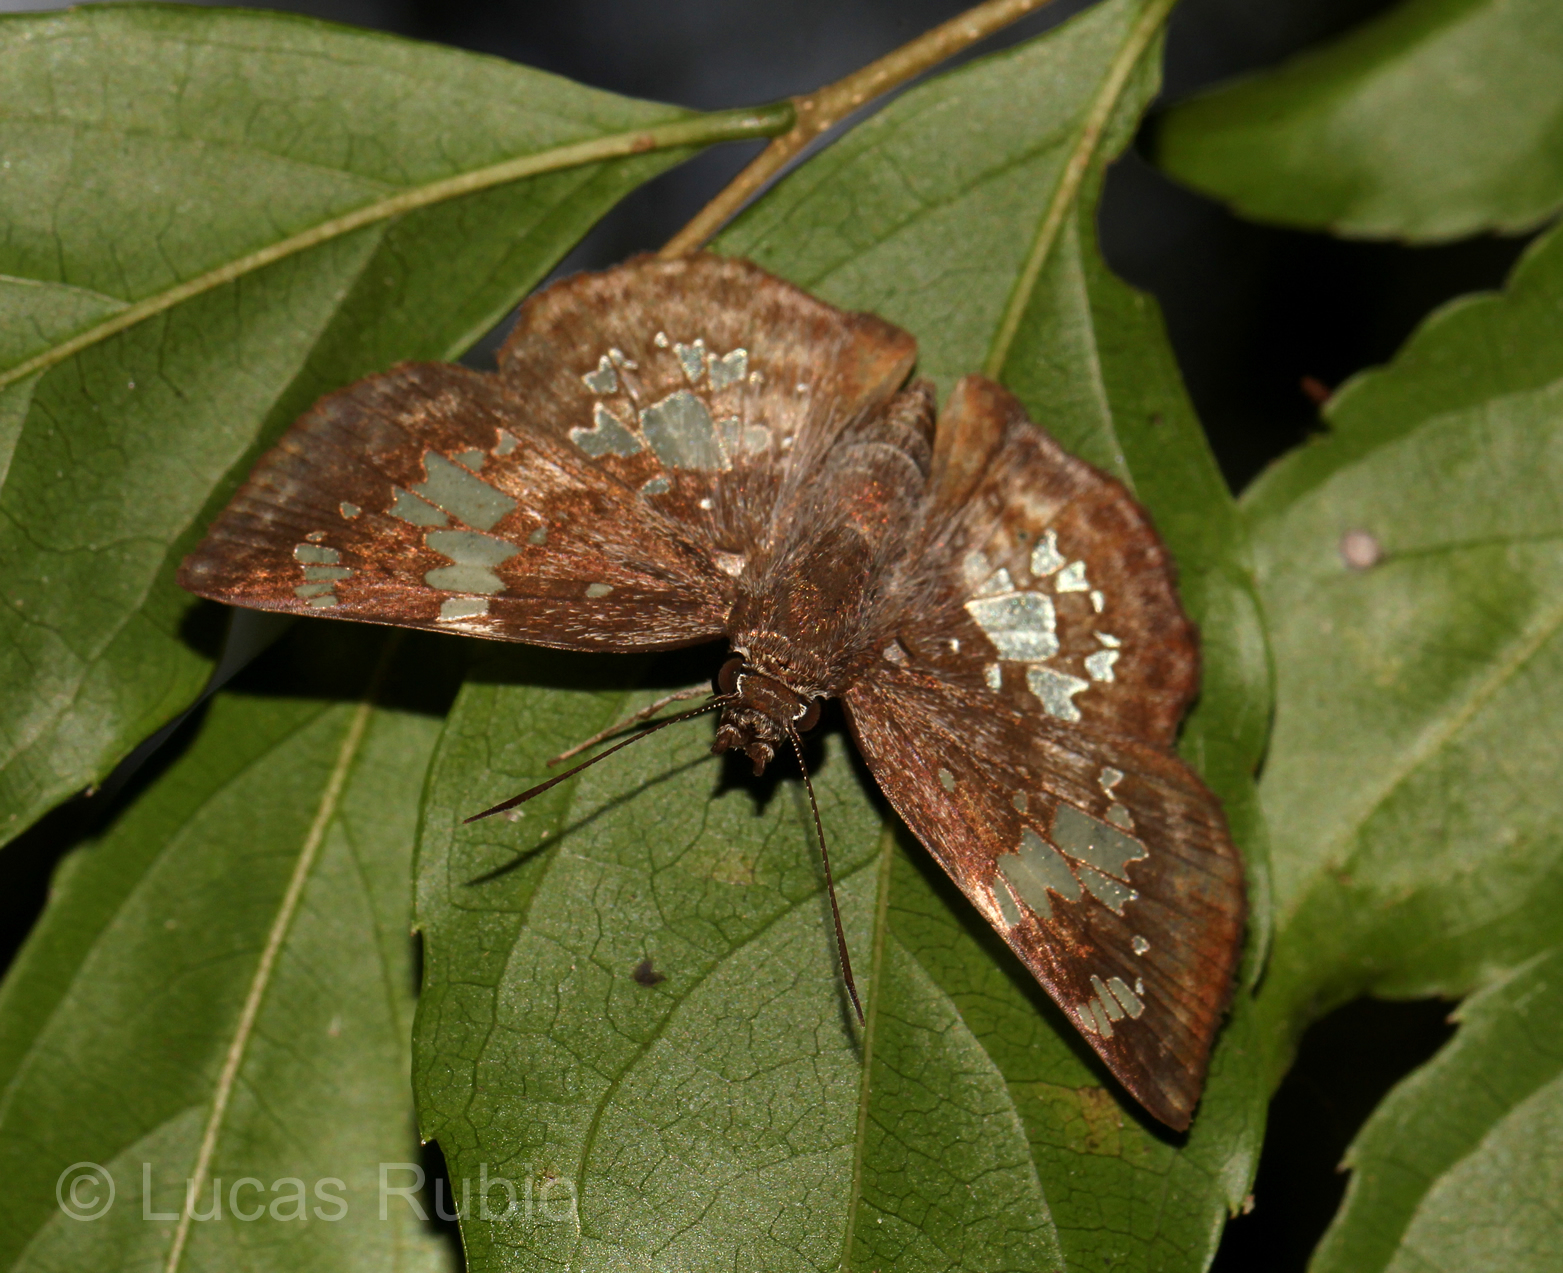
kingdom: Animalia
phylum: Arthropoda
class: Insecta
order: Lepidoptera
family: Hesperiidae
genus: Xenophanes
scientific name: Xenophanes tryxus
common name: Glassy-winged skipper
